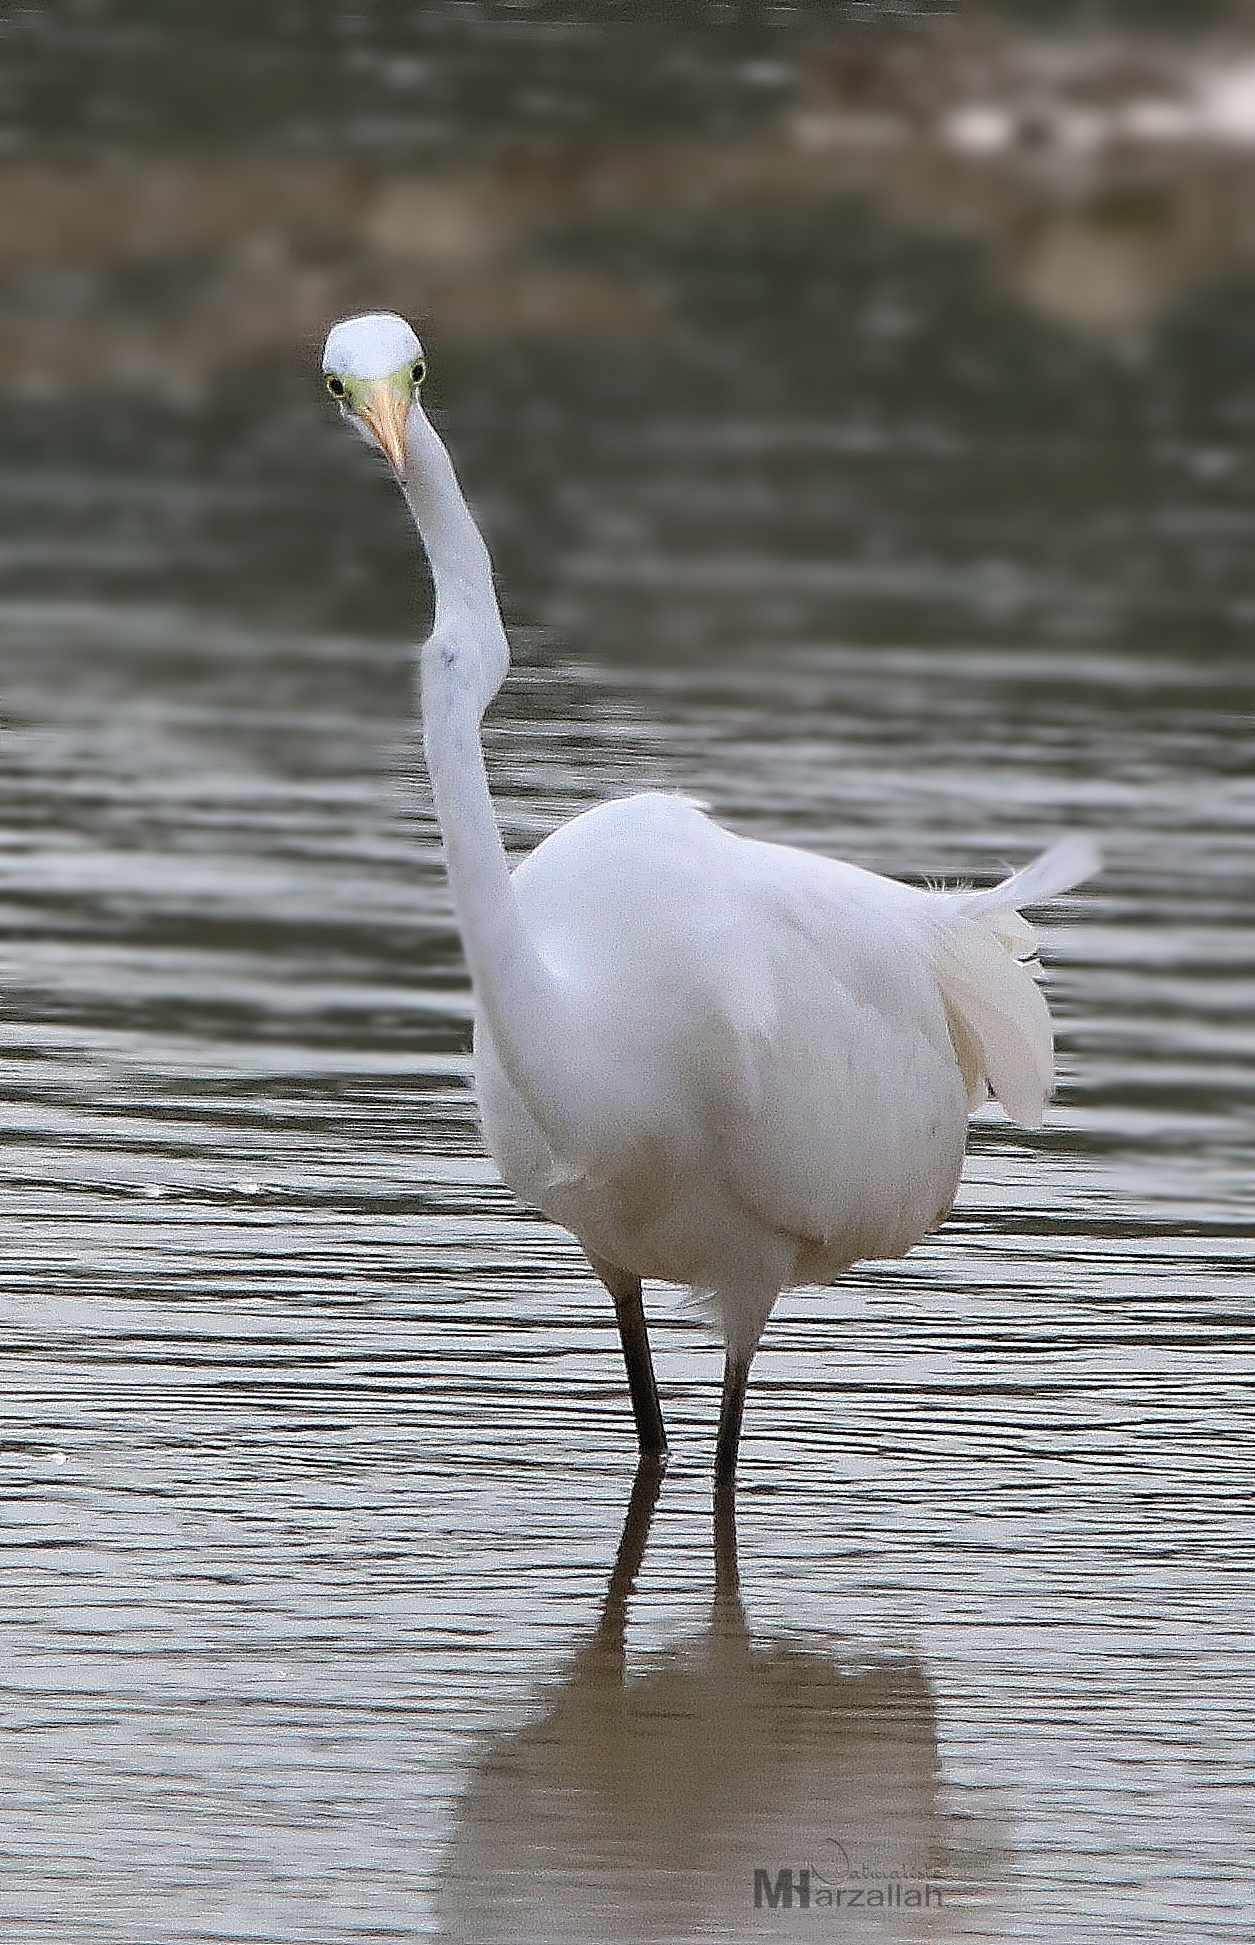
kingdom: Animalia
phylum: Chordata
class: Aves
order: Pelecaniformes
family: Ardeidae
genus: Ardea
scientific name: Ardea alba
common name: Great egret
